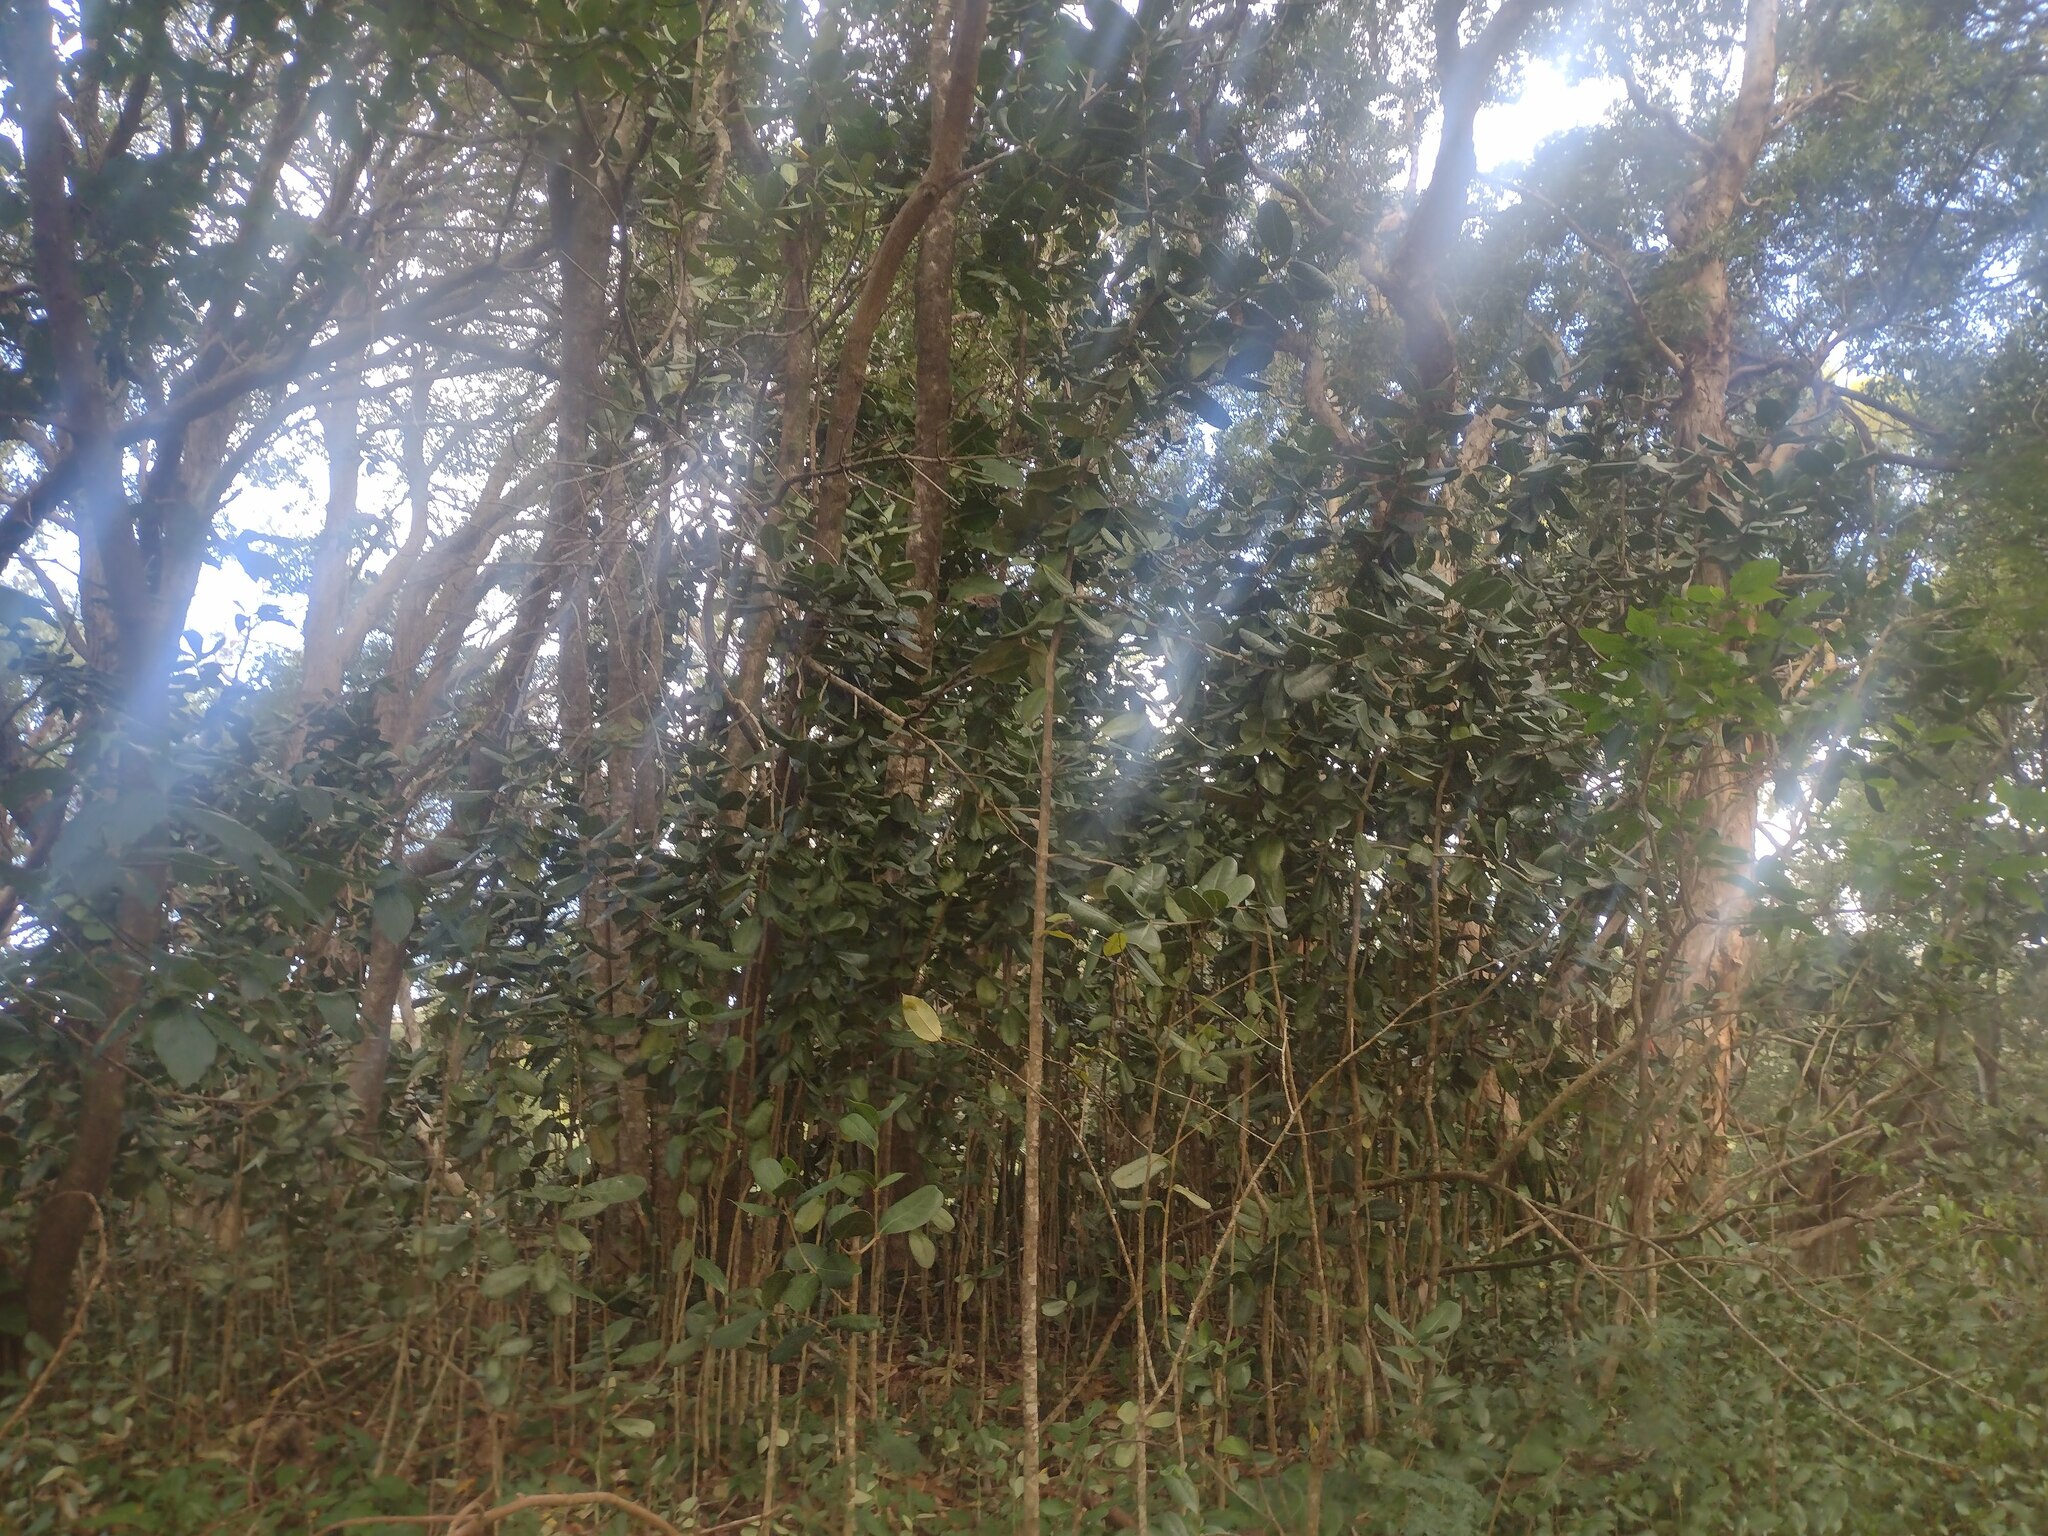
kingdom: Plantae
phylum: Tracheophyta
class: Magnoliopsida
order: Lamiales
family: Oleaceae
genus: Noronhia
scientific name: Noronhia emarginata
